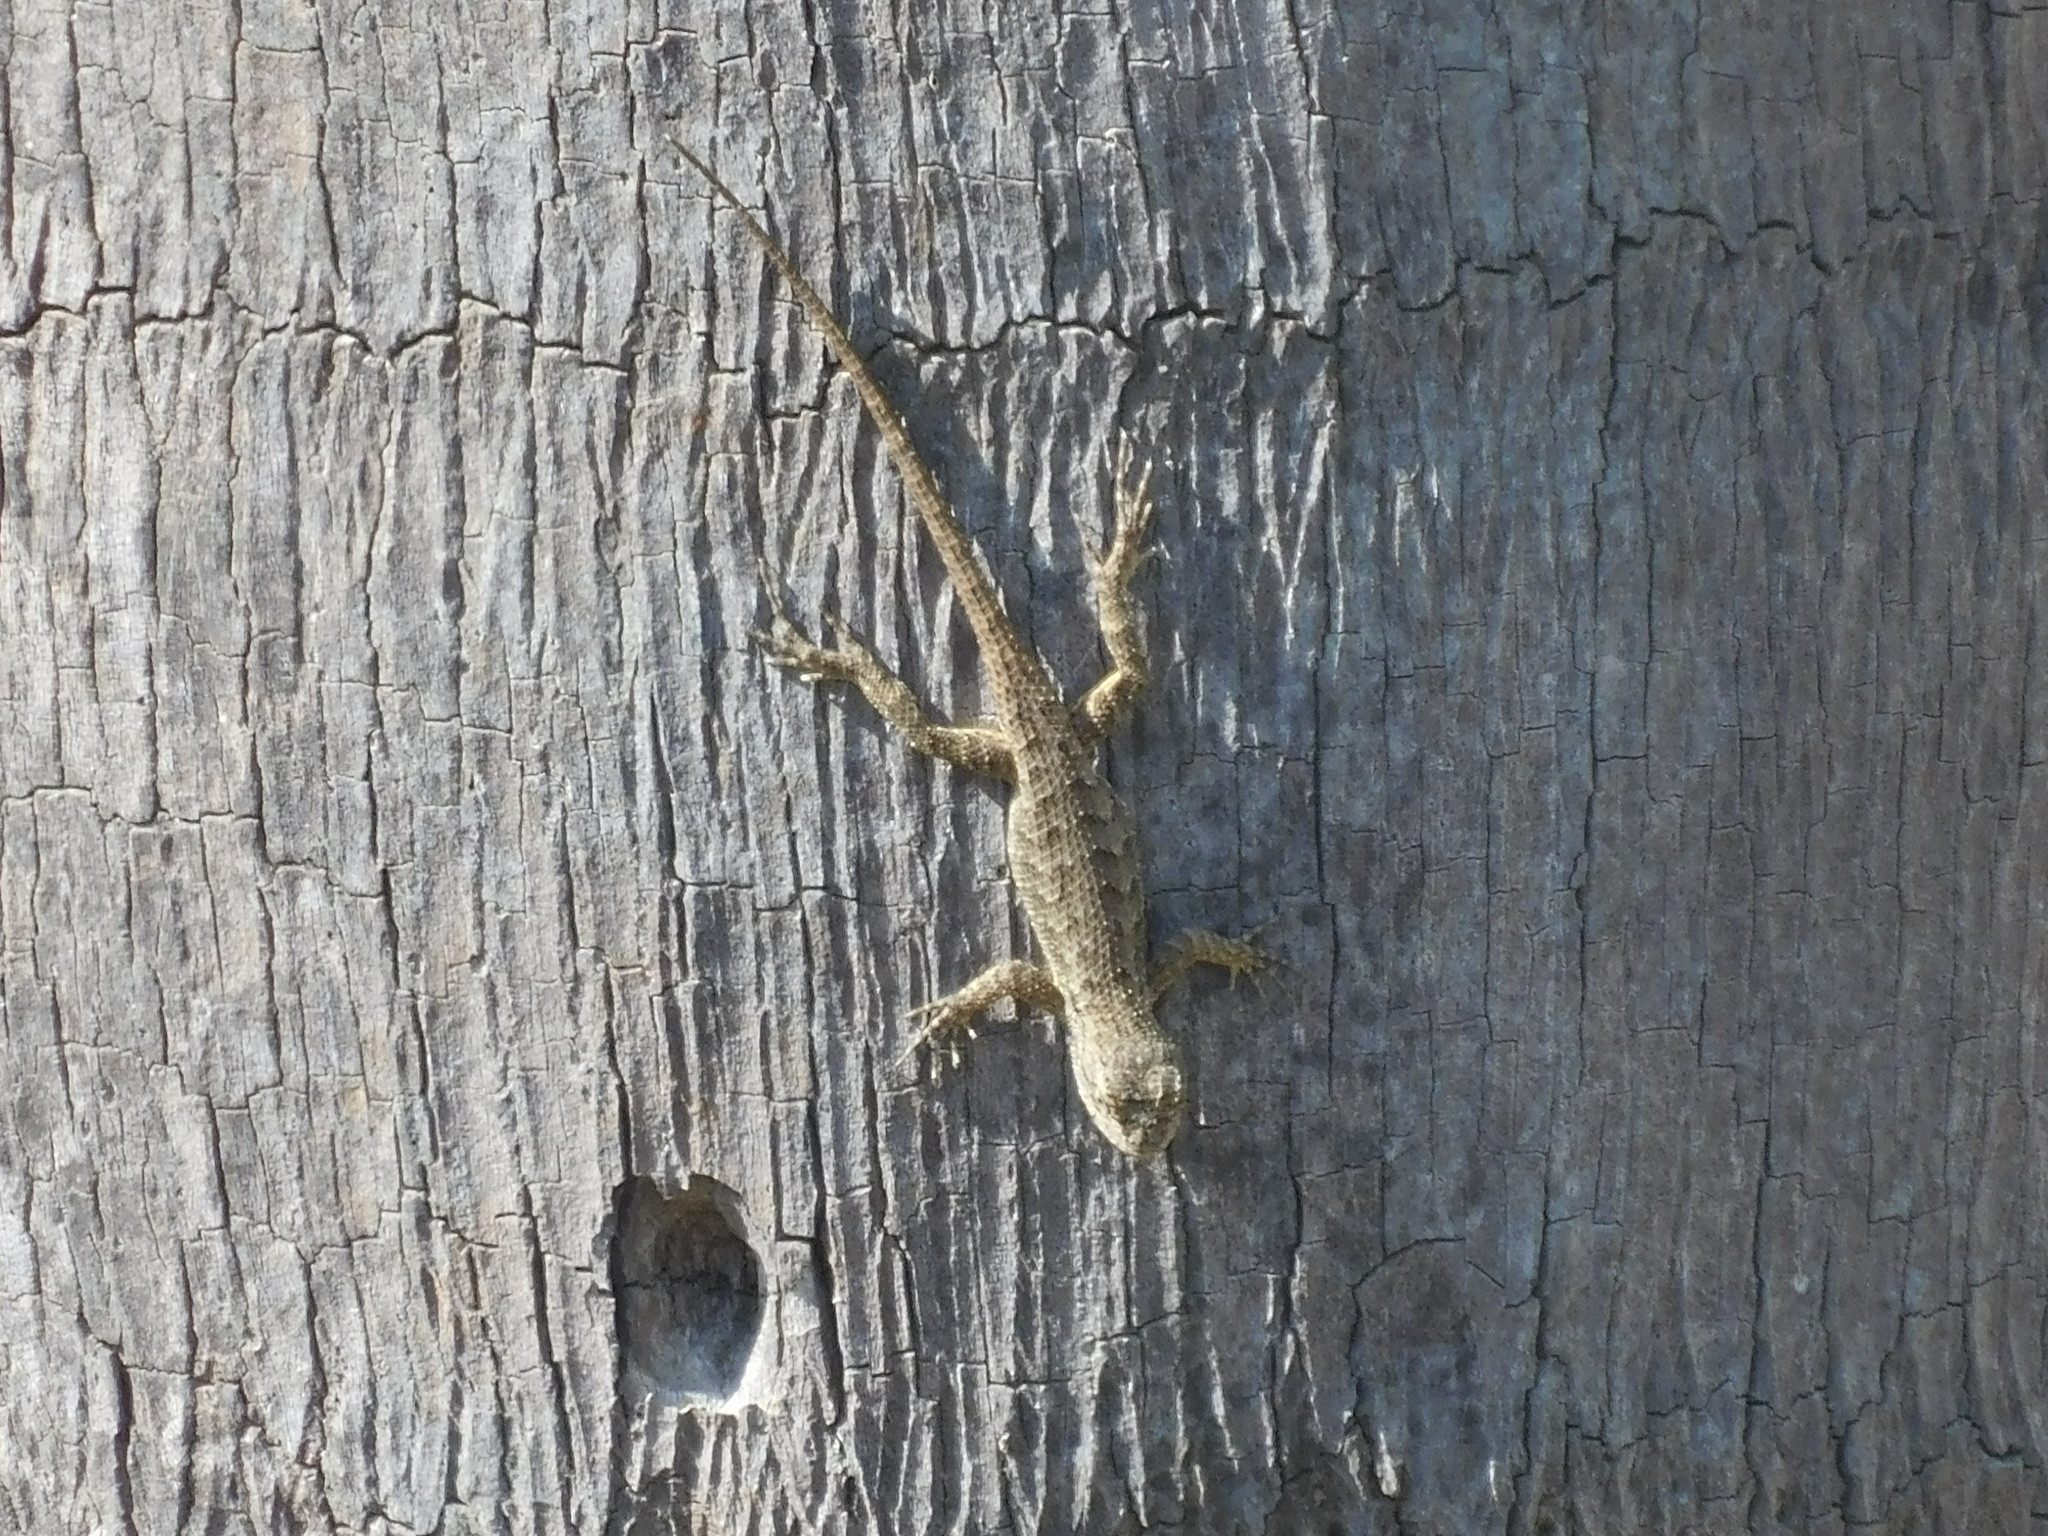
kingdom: Animalia
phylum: Chordata
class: Squamata
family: Phrynosomatidae
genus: Sceloporus
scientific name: Sceloporus occidentalis
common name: Western fence lizard
